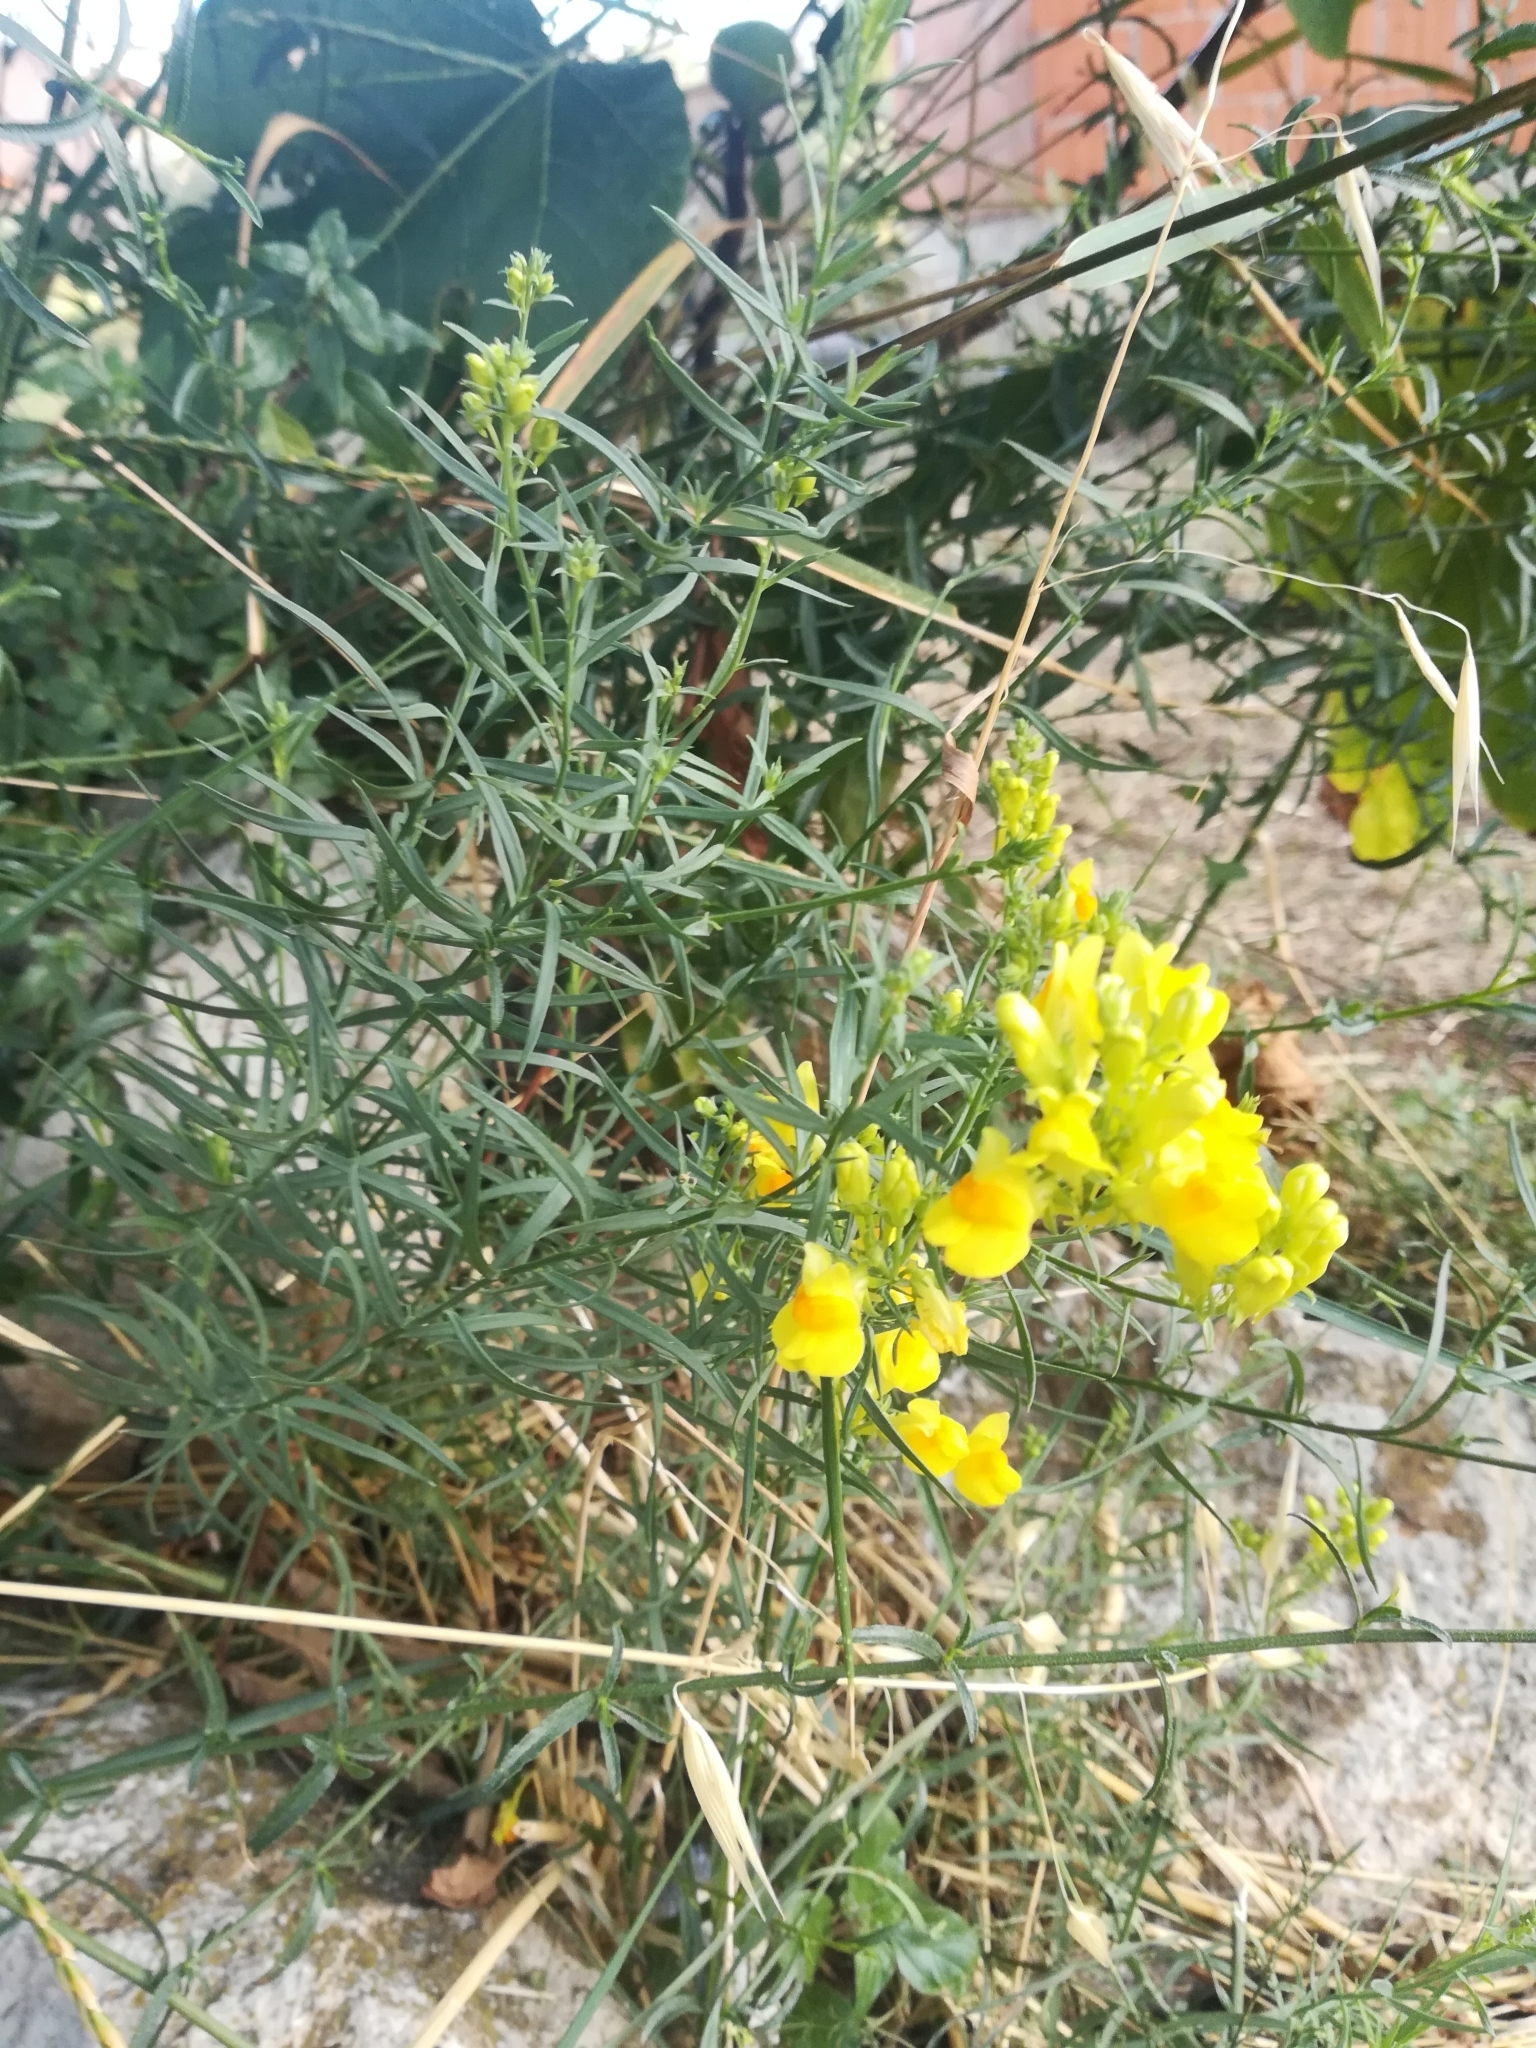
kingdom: Plantae
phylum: Tracheophyta
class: Magnoliopsida
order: Lamiales
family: Plantaginaceae
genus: Linaria
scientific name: Linaria vulgaris
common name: Butter and eggs
